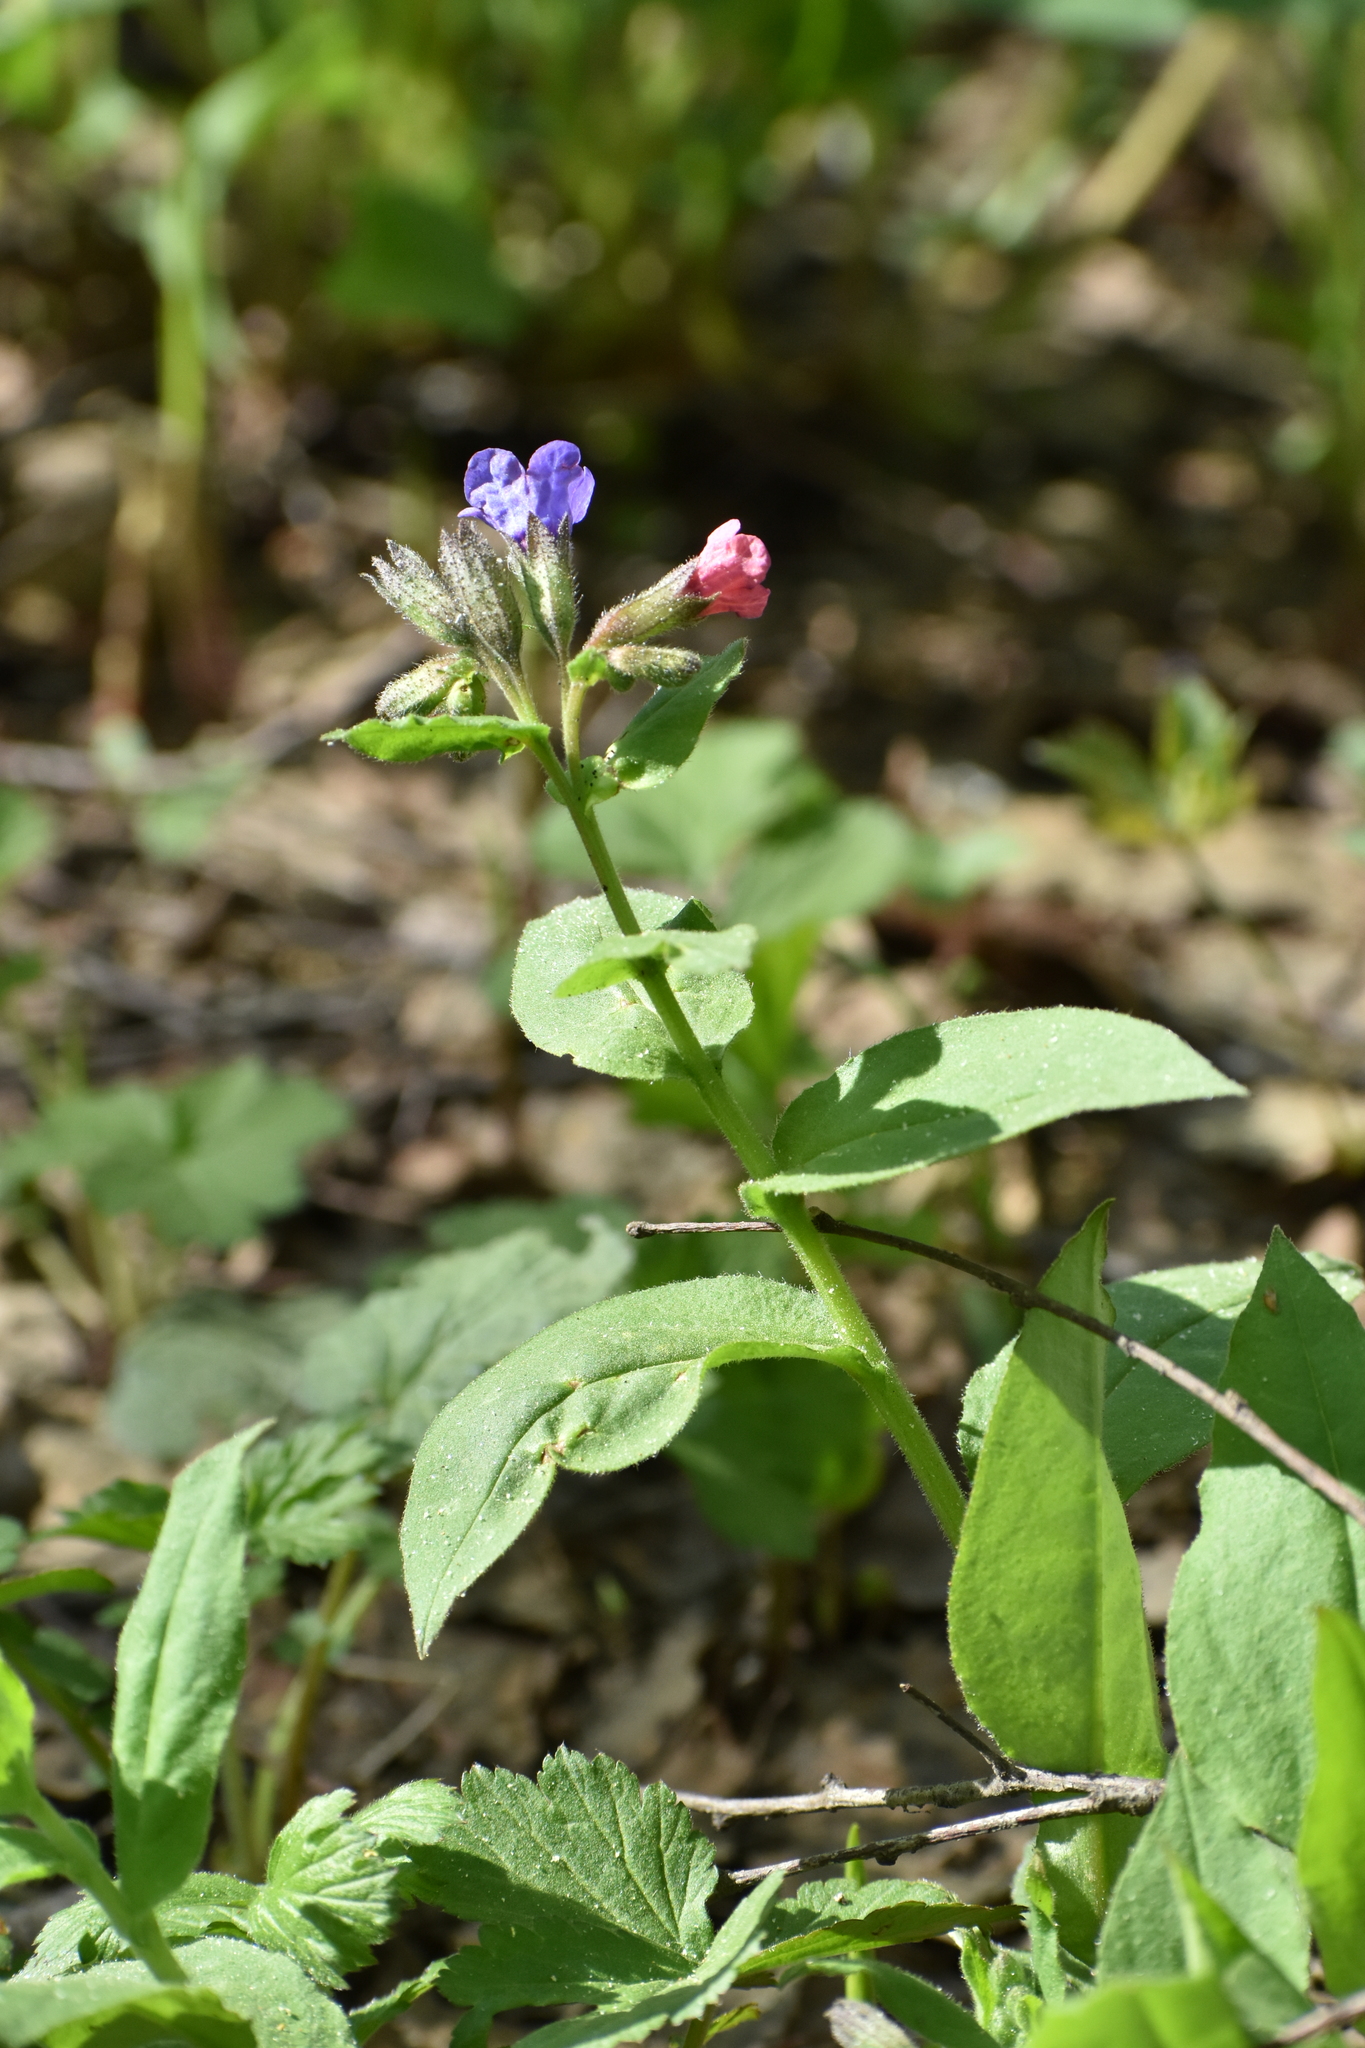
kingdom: Plantae
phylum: Tracheophyta
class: Magnoliopsida
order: Boraginales
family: Boraginaceae
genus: Pulmonaria
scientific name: Pulmonaria obscura
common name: Suffolk lungwort
